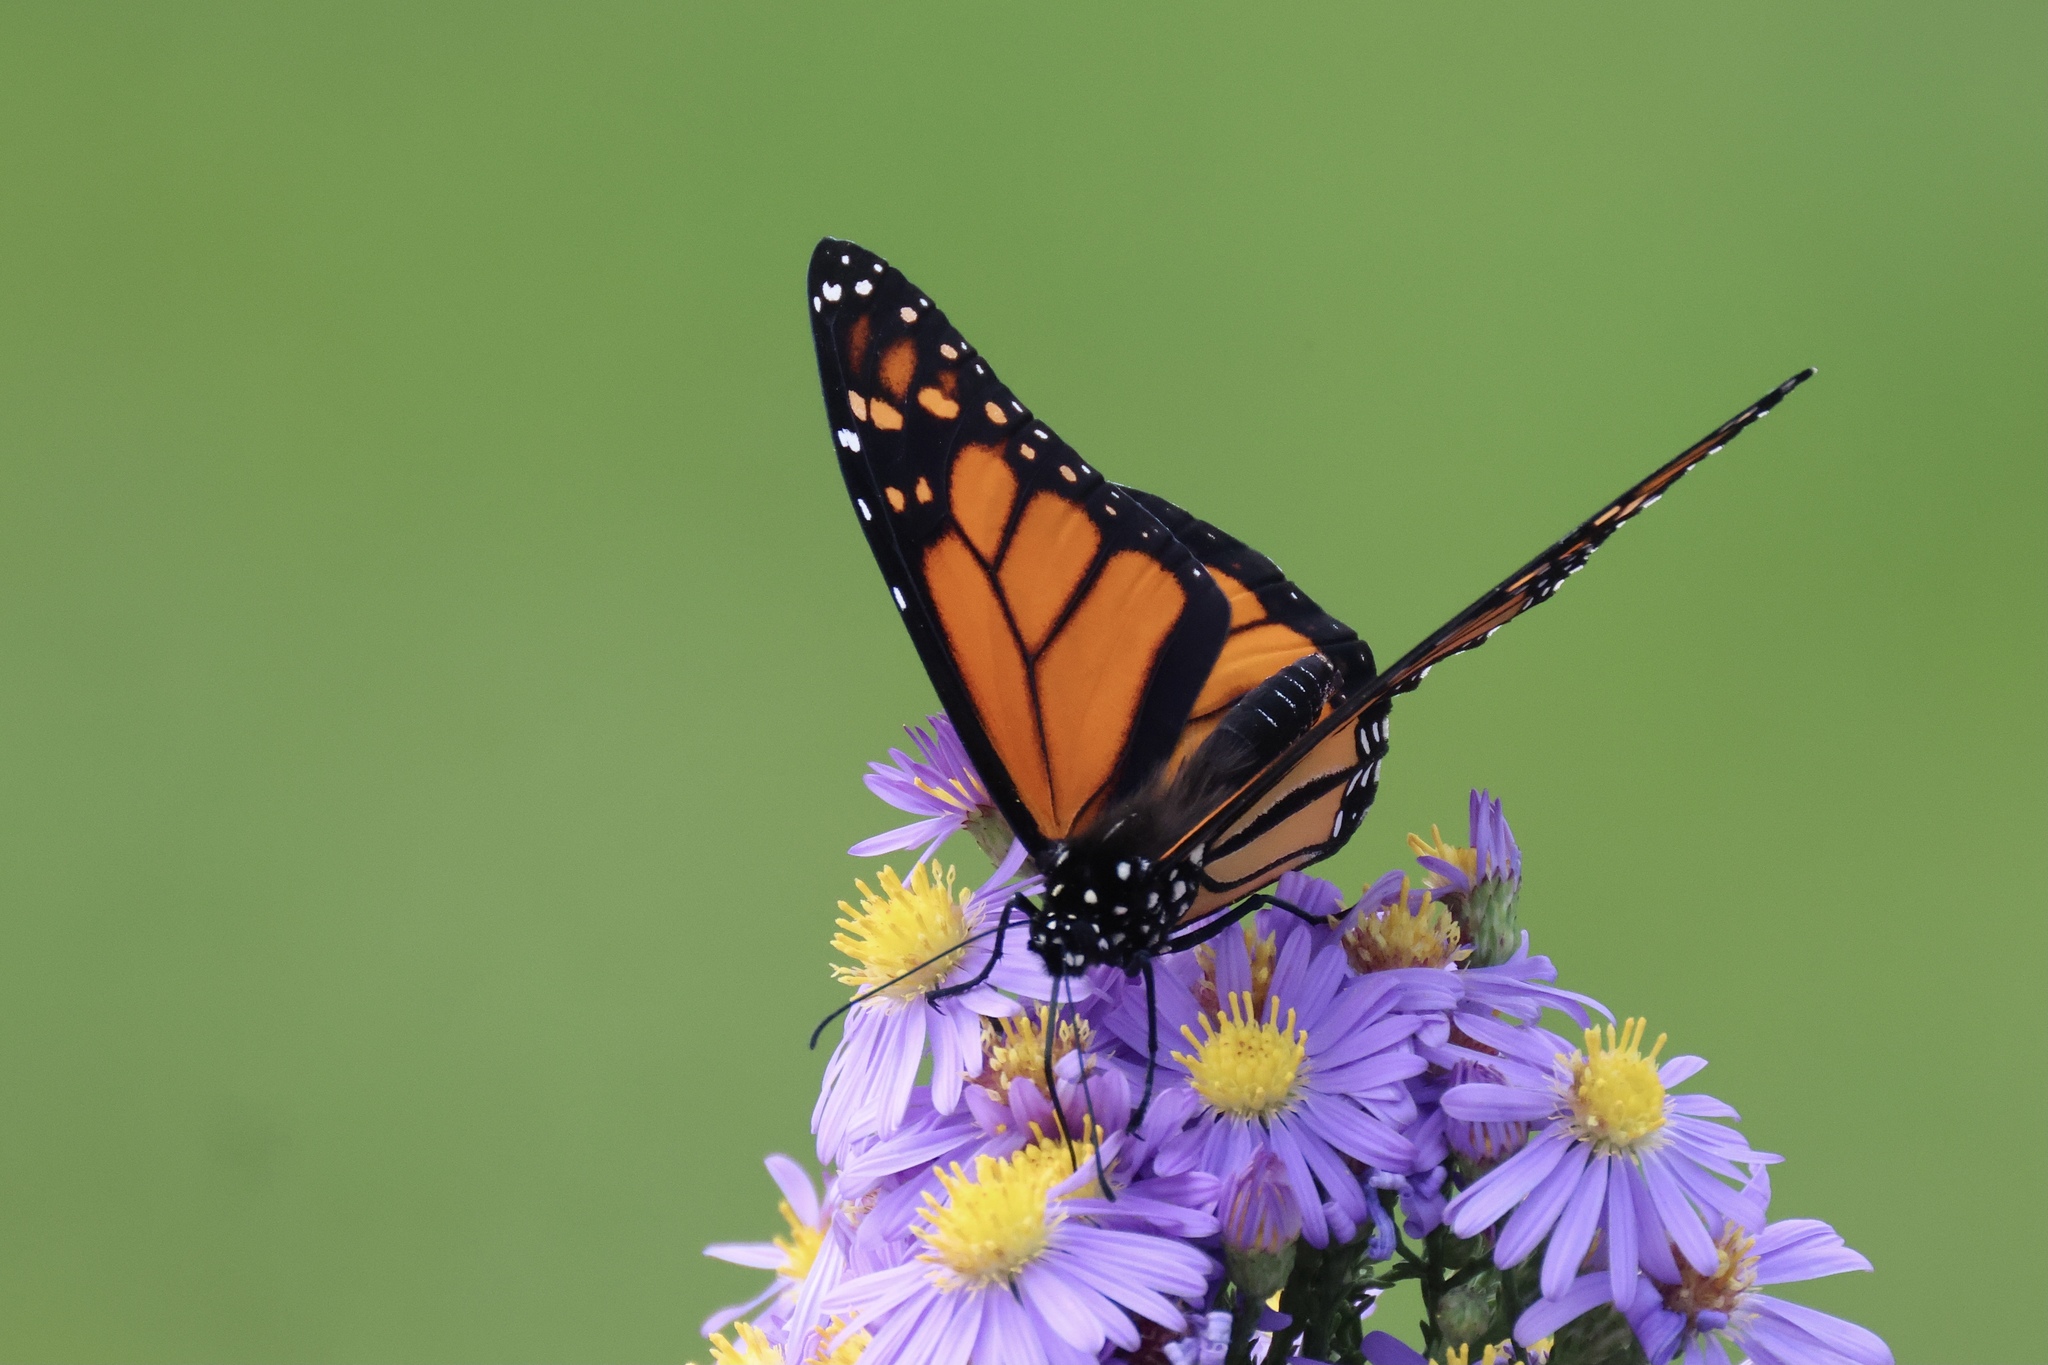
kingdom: Animalia
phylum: Arthropoda
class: Insecta
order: Lepidoptera
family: Nymphalidae
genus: Danaus
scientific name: Danaus plexippus
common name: Monarch
